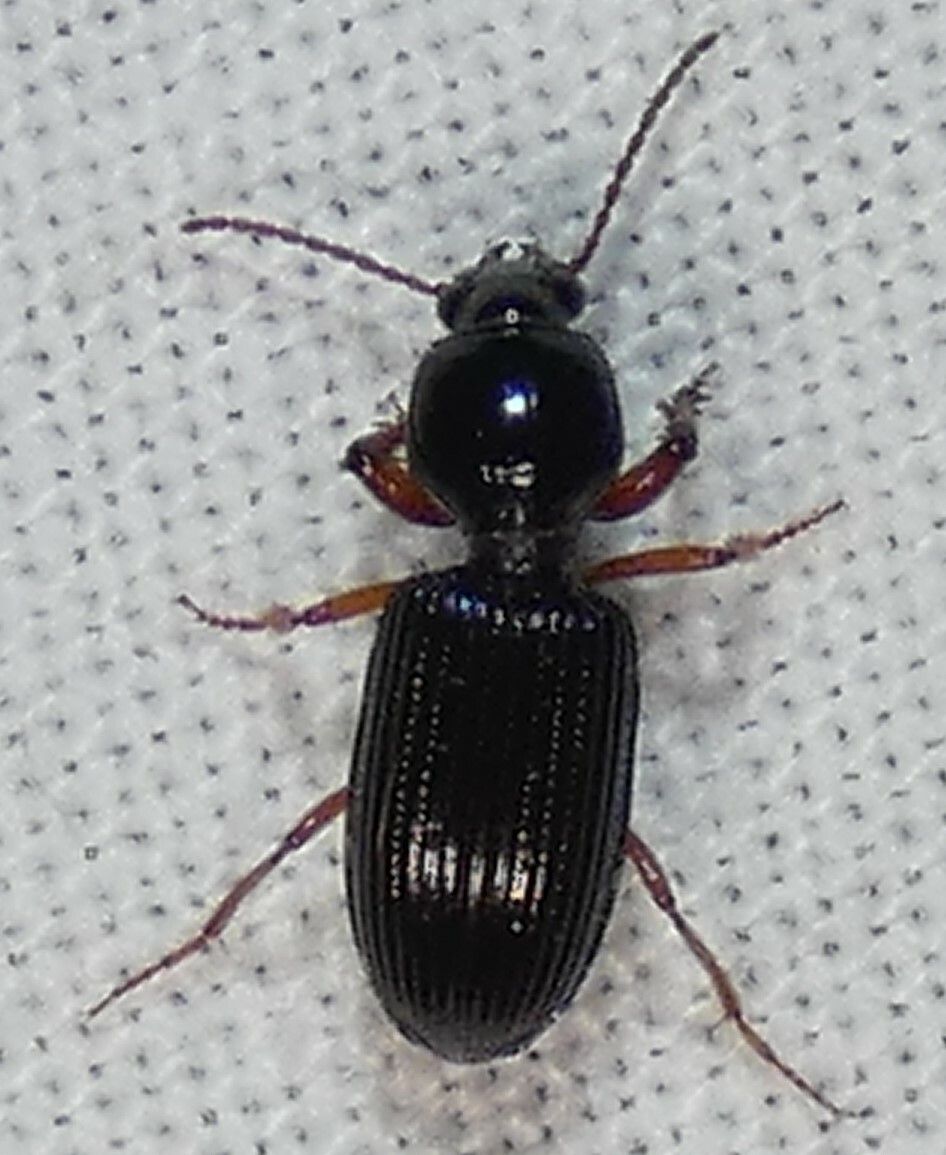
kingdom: Animalia
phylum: Arthropoda
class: Insecta
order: Coleoptera
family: Carabidae
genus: Aspidoglossa
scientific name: Aspidoglossa subangulata
